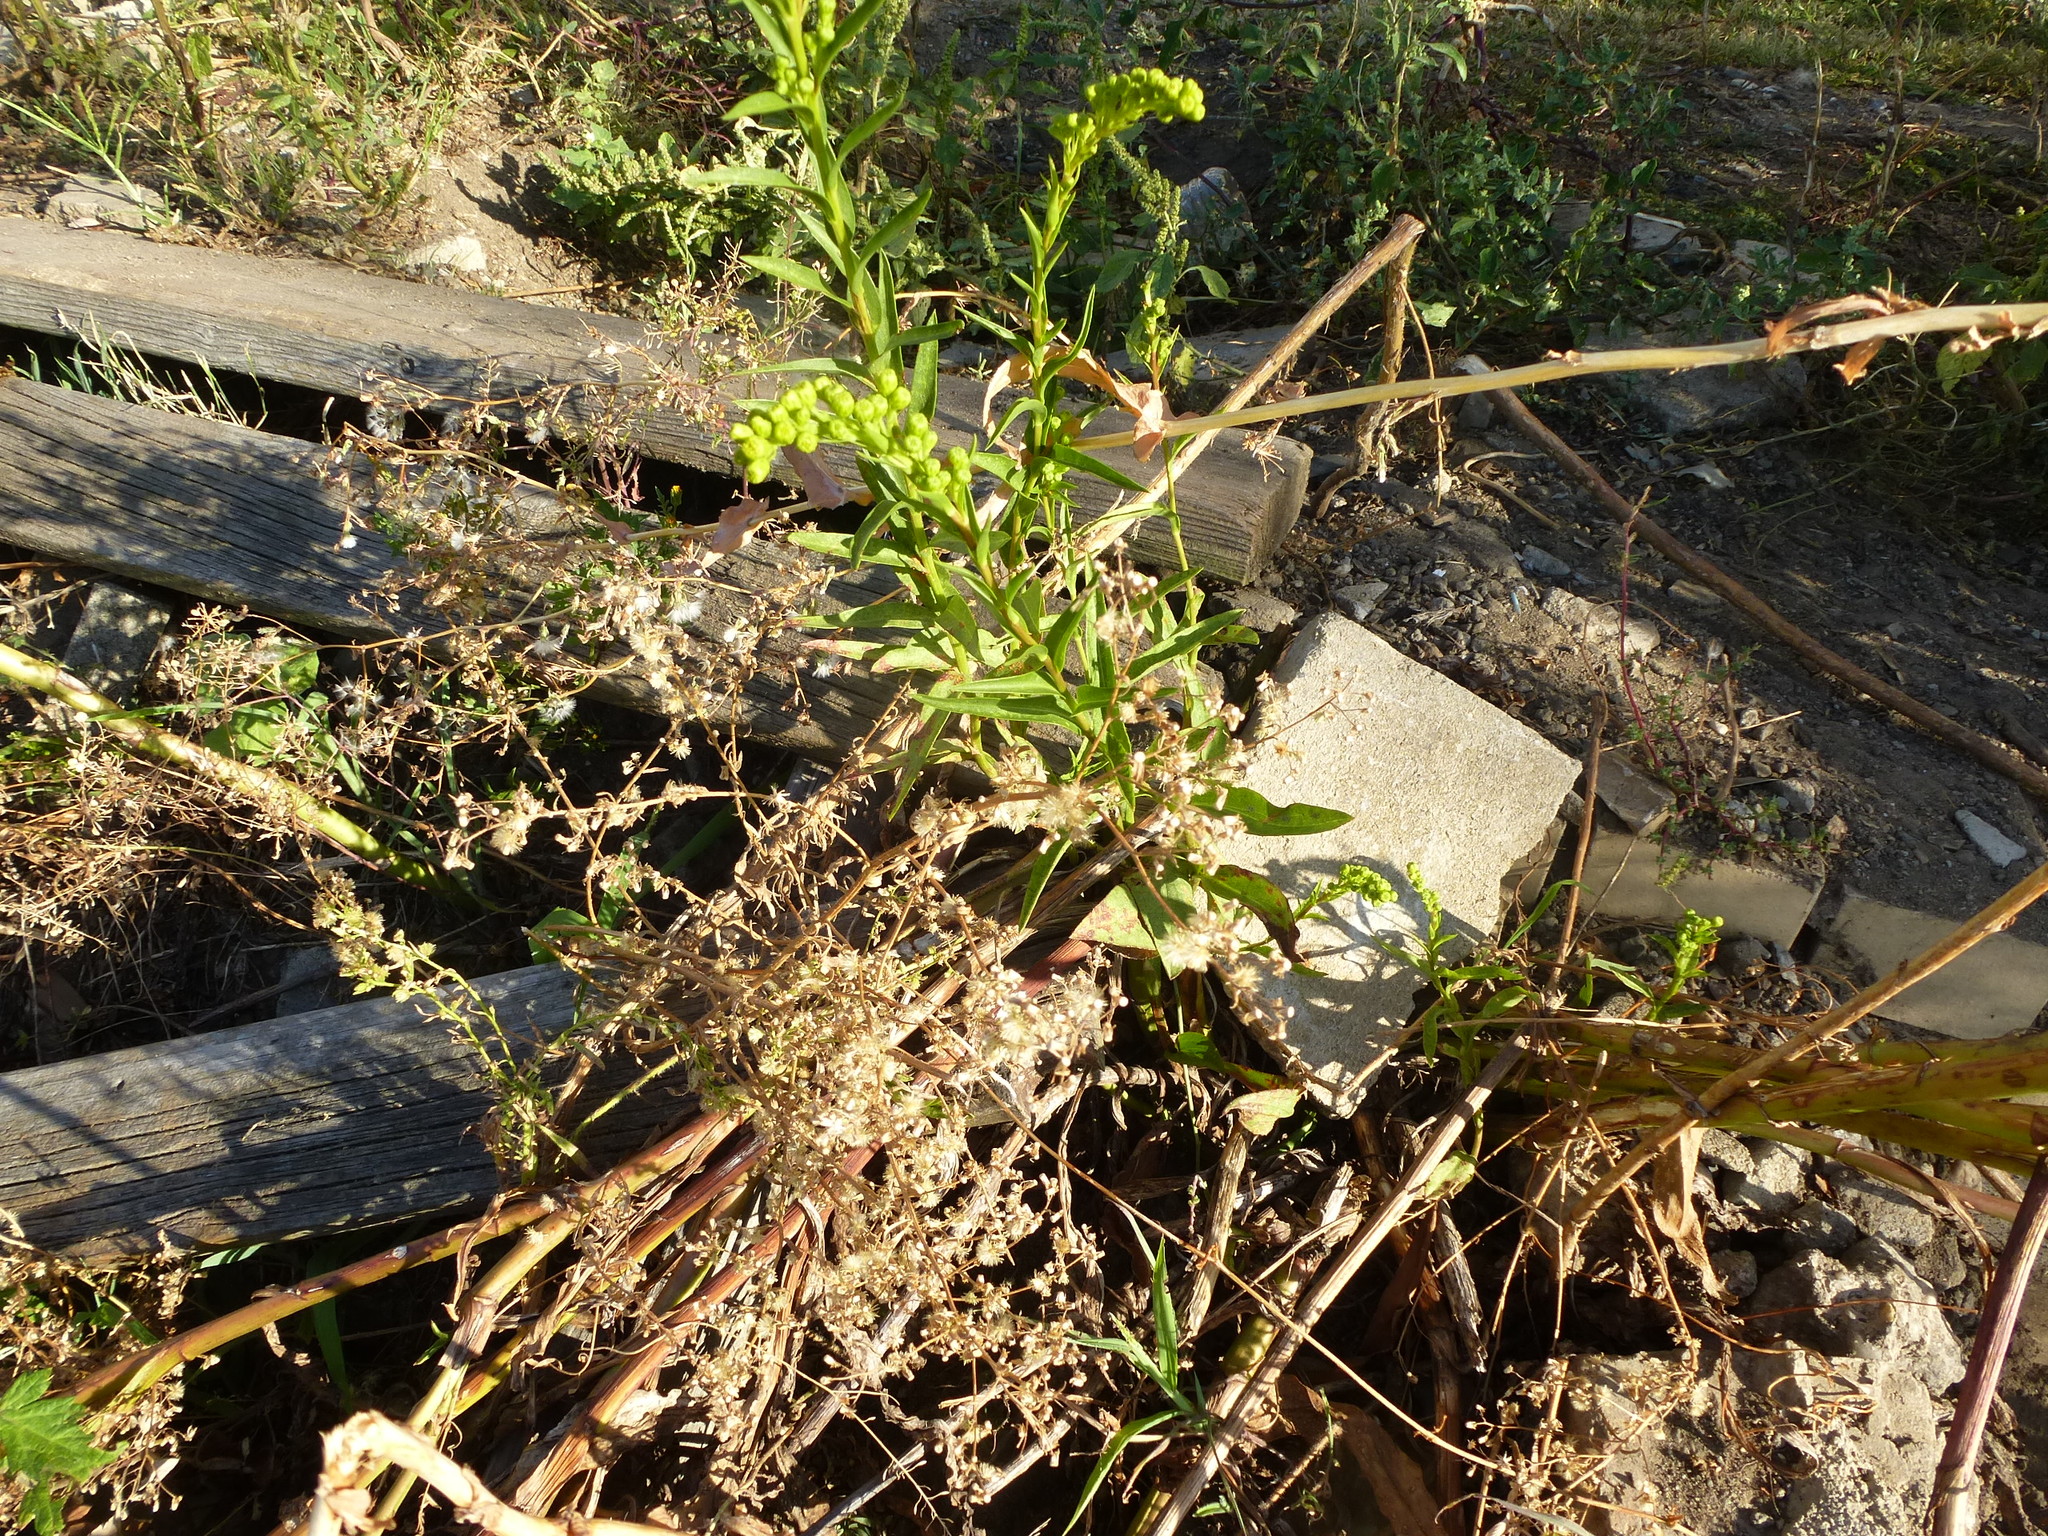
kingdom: Plantae
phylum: Tracheophyta
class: Magnoliopsida
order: Asterales
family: Asteraceae
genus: Solidago
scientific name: Solidago sempervirens
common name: Salt-marsh goldenrod
